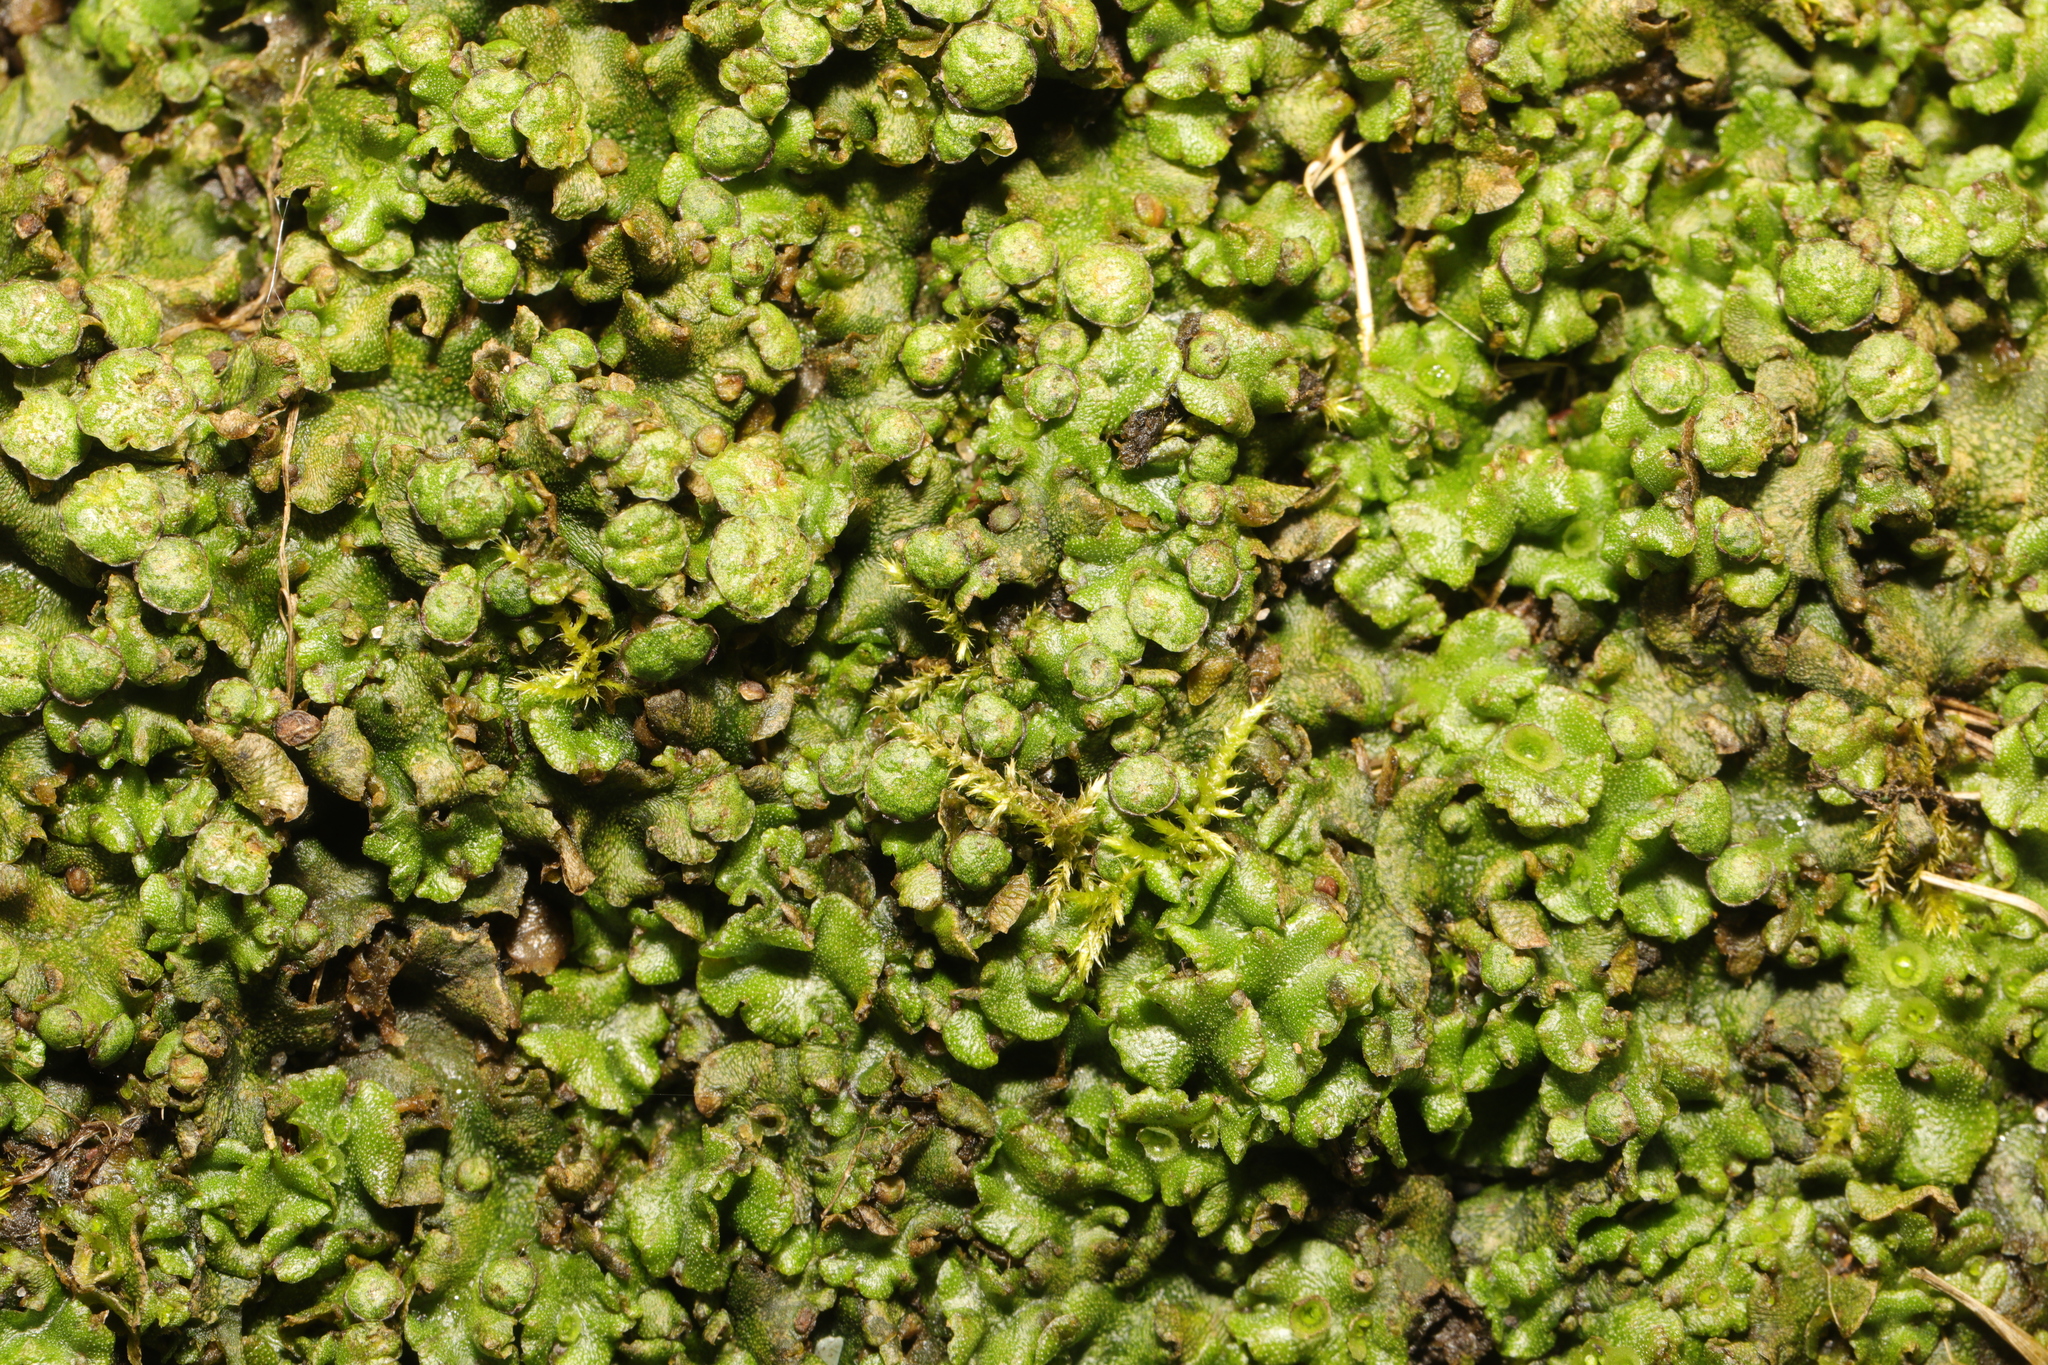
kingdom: Plantae
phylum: Marchantiophyta
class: Marchantiopsida
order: Marchantiales
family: Marchantiaceae
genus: Marchantia
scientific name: Marchantia polymorpha
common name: Common liverwort
